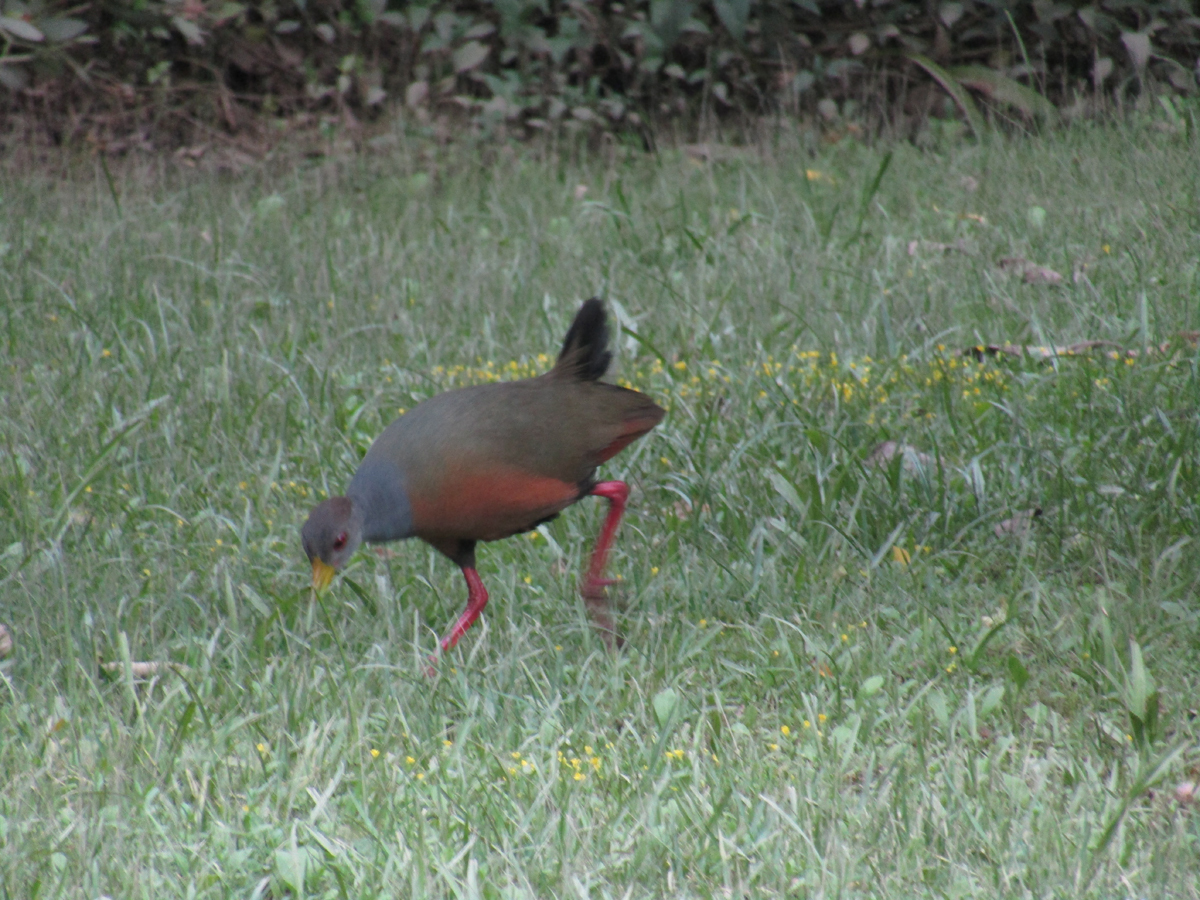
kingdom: Animalia
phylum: Chordata
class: Aves
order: Gruiformes
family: Rallidae
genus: Aramides
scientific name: Aramides cajanea
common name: Gray-necked wood-rail
